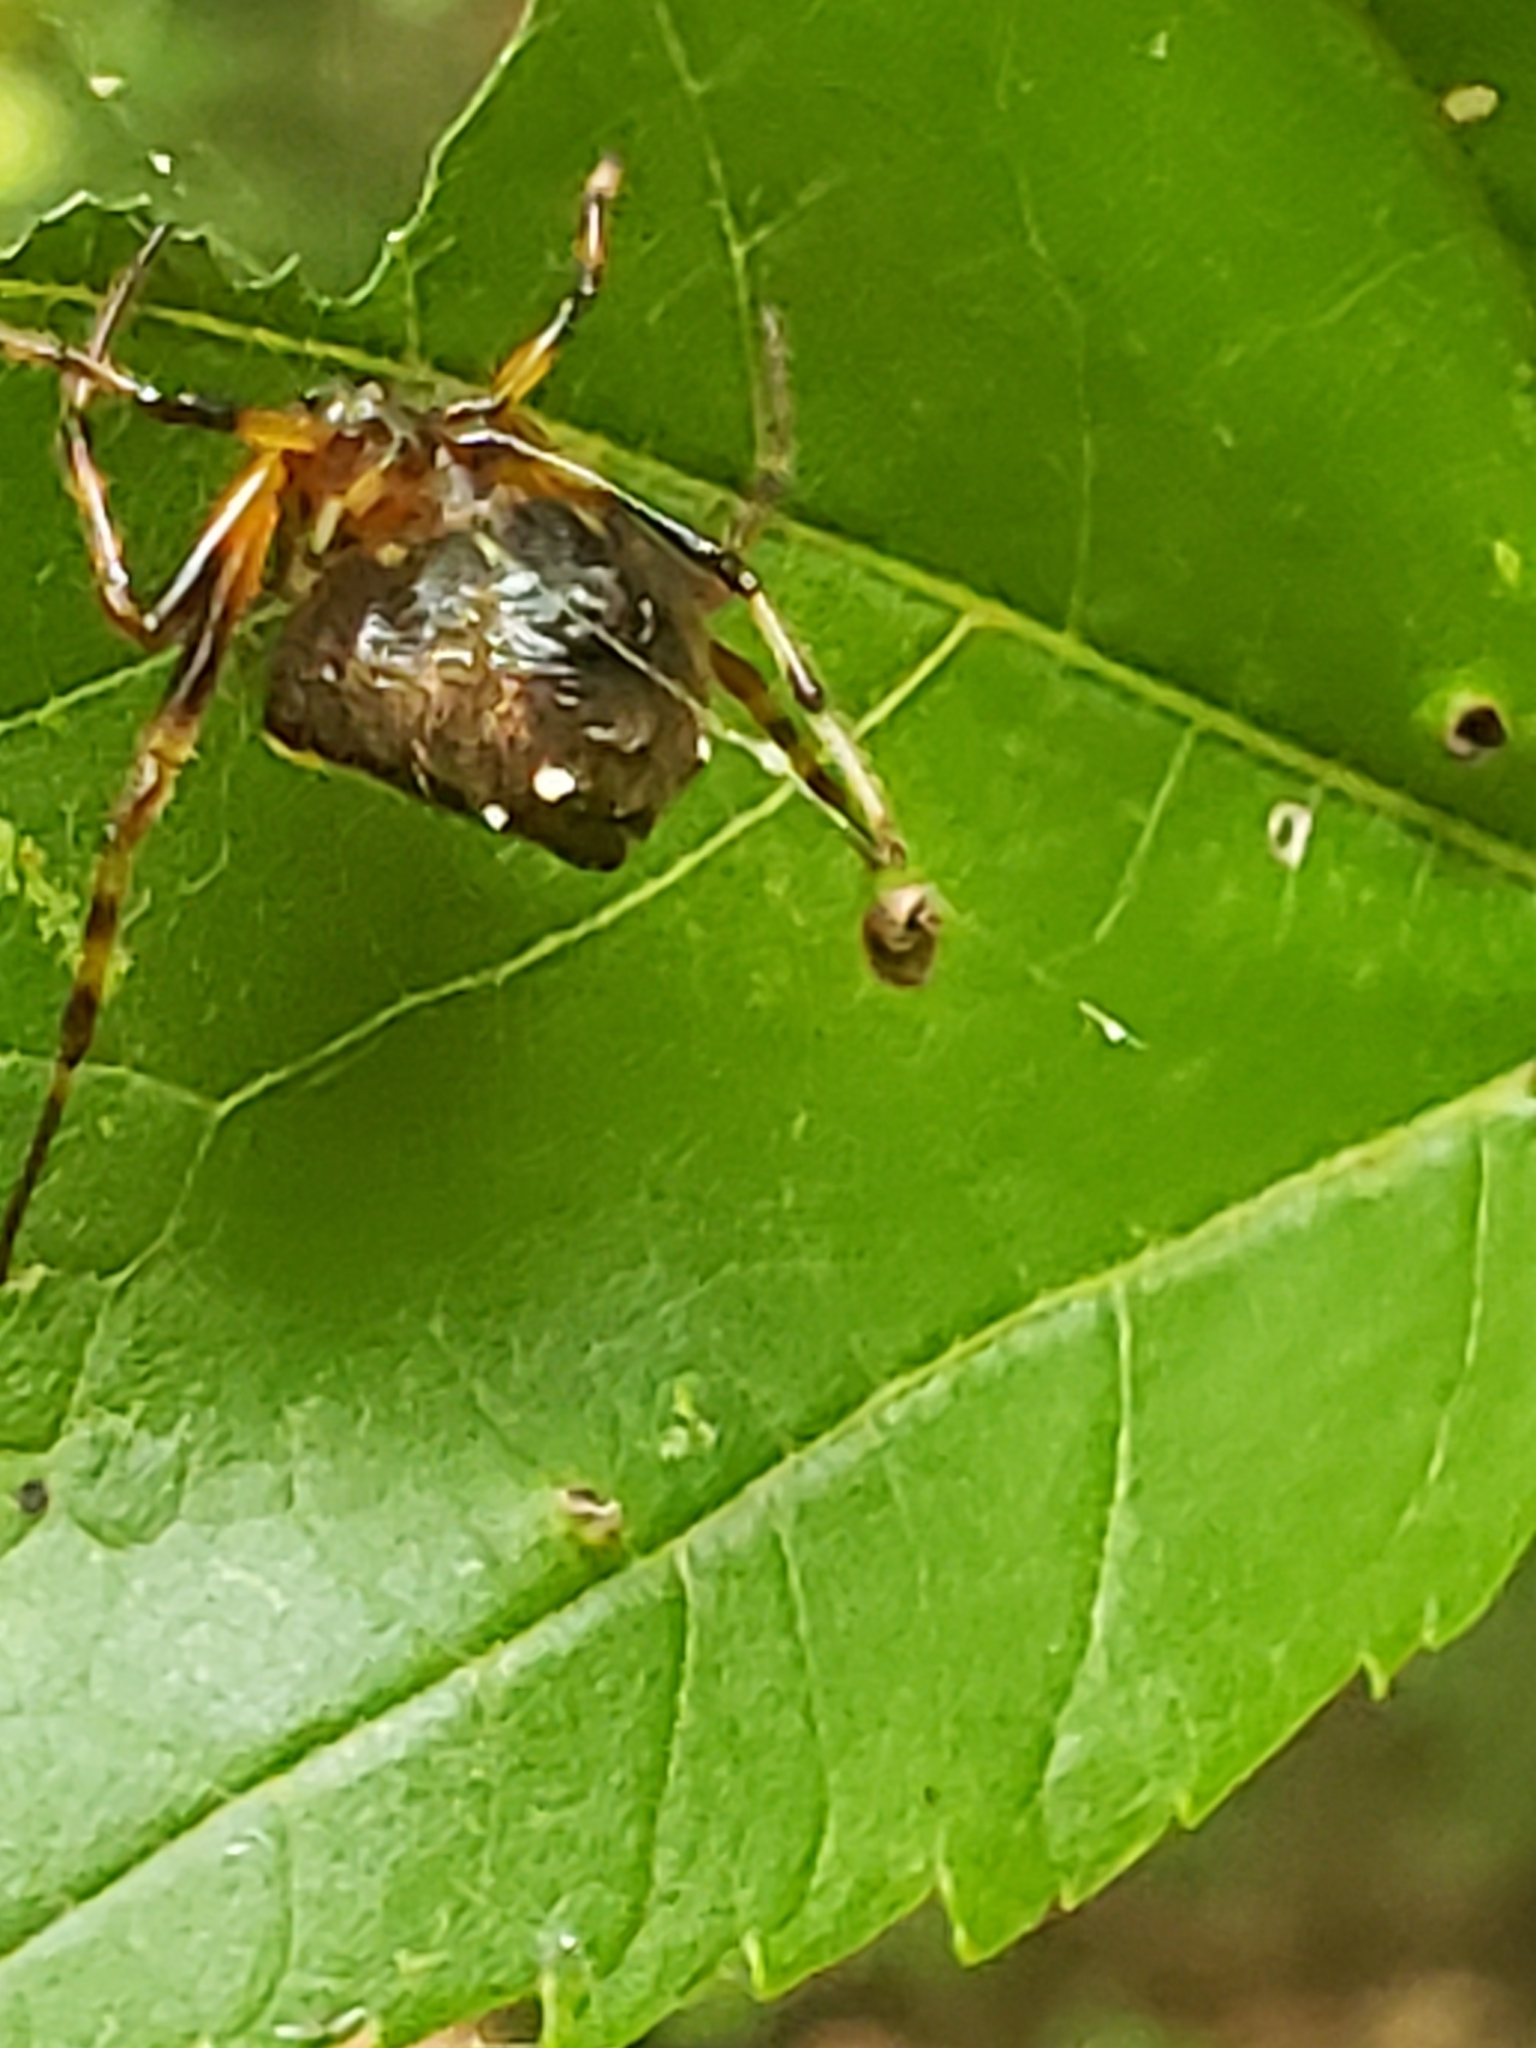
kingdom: Animalia
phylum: Arthropoda
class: Arachnida
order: Araneae
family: Araneidae
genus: Verrucosa
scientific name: Verrucosa arenata
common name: Orb weavers
